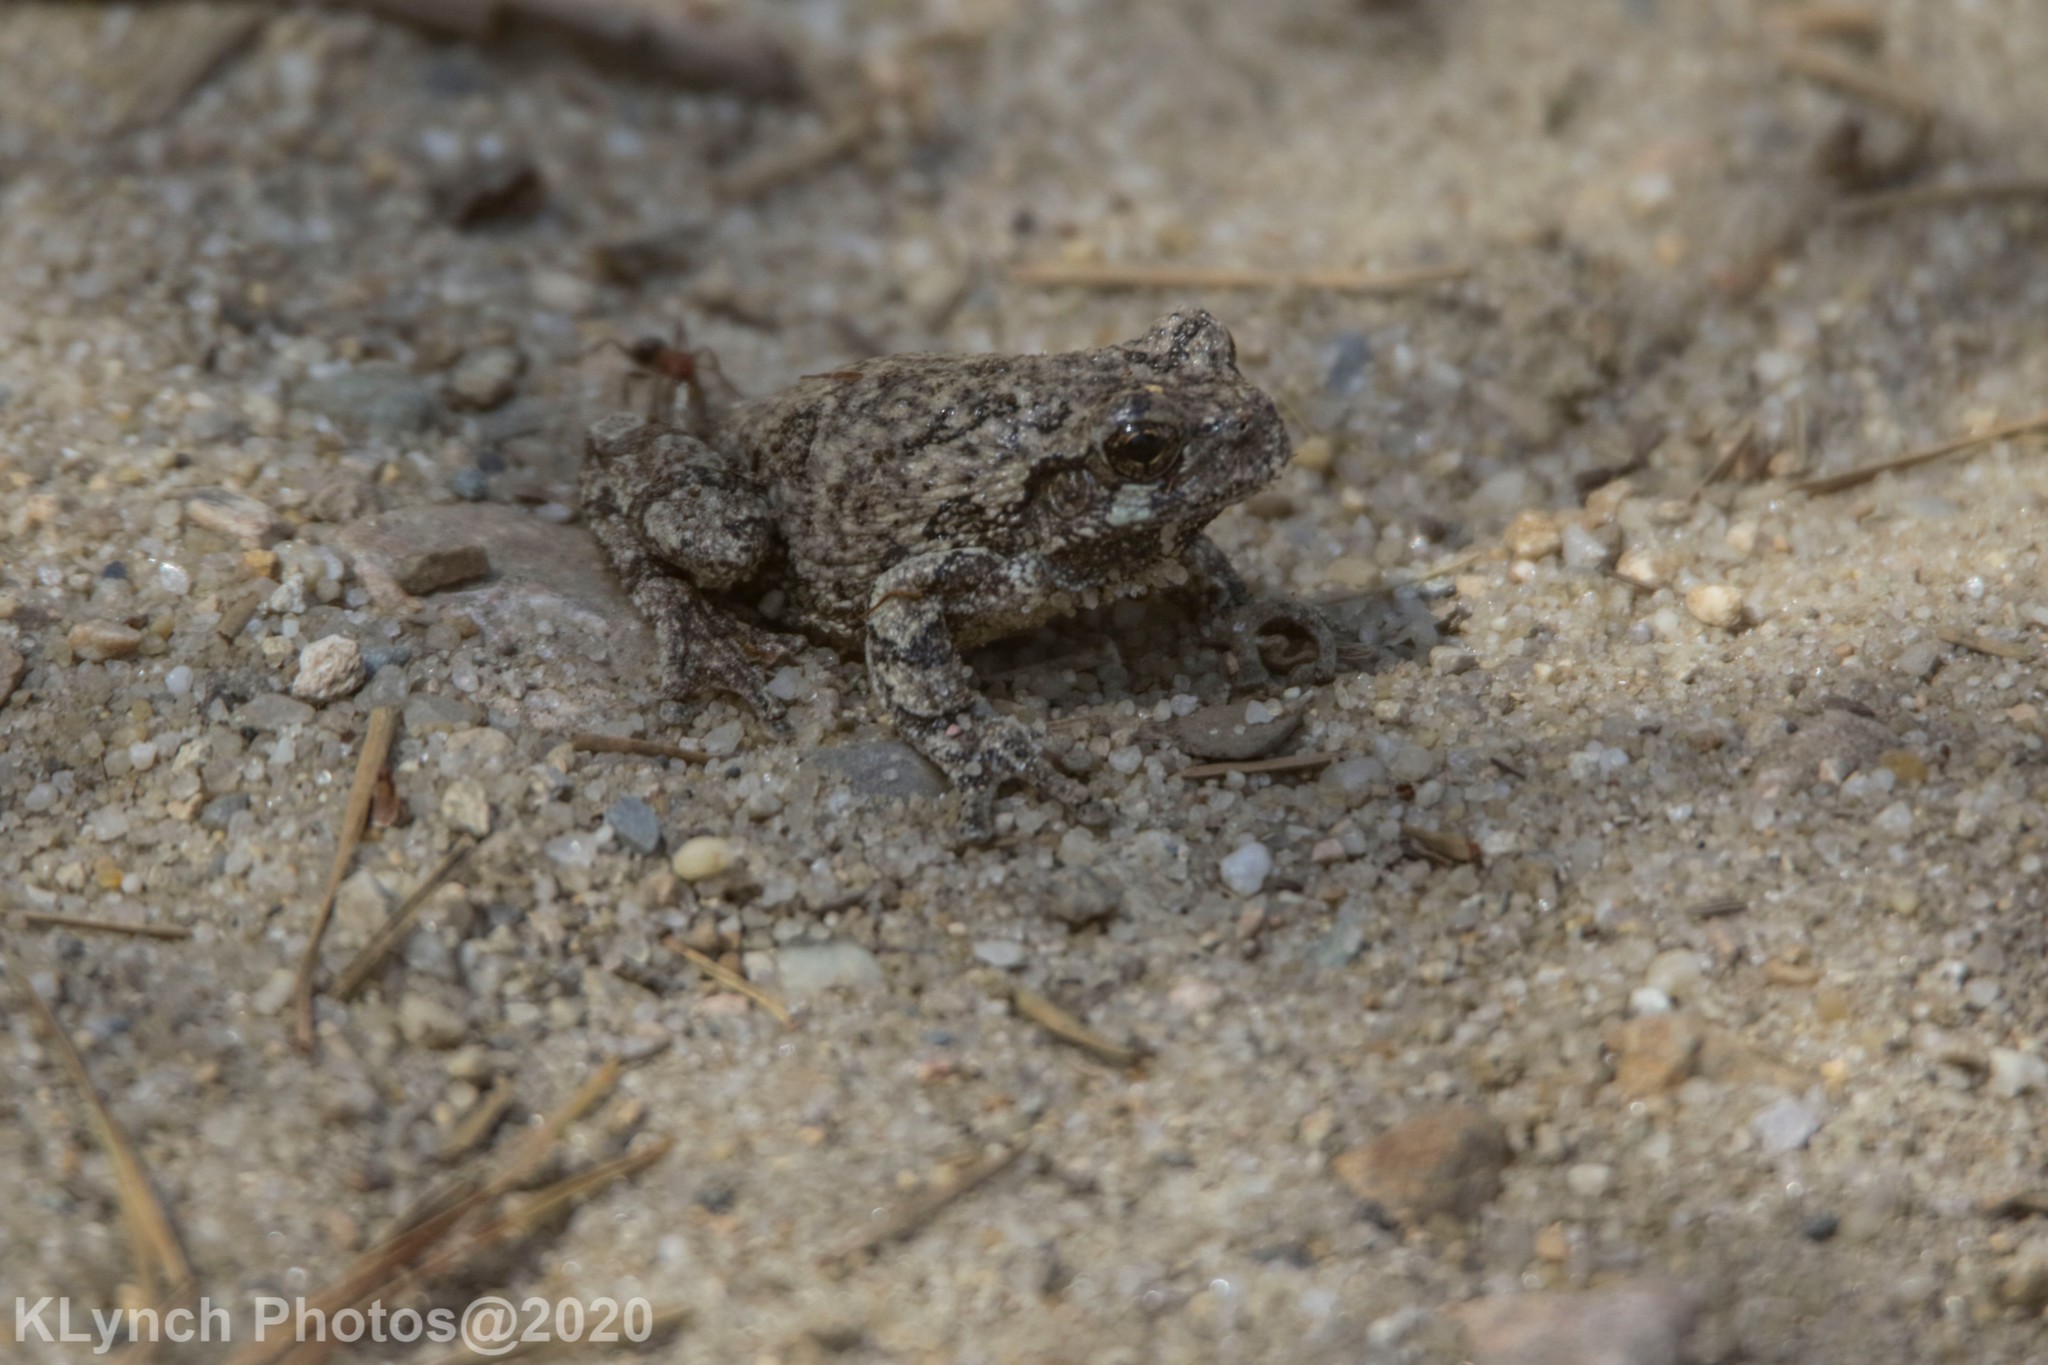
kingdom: Animalia
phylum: Chordata
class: Amphibia
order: Anura
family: Hylidae
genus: Dryophytes
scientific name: Dryophytes versicolor
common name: Gray treefrog
